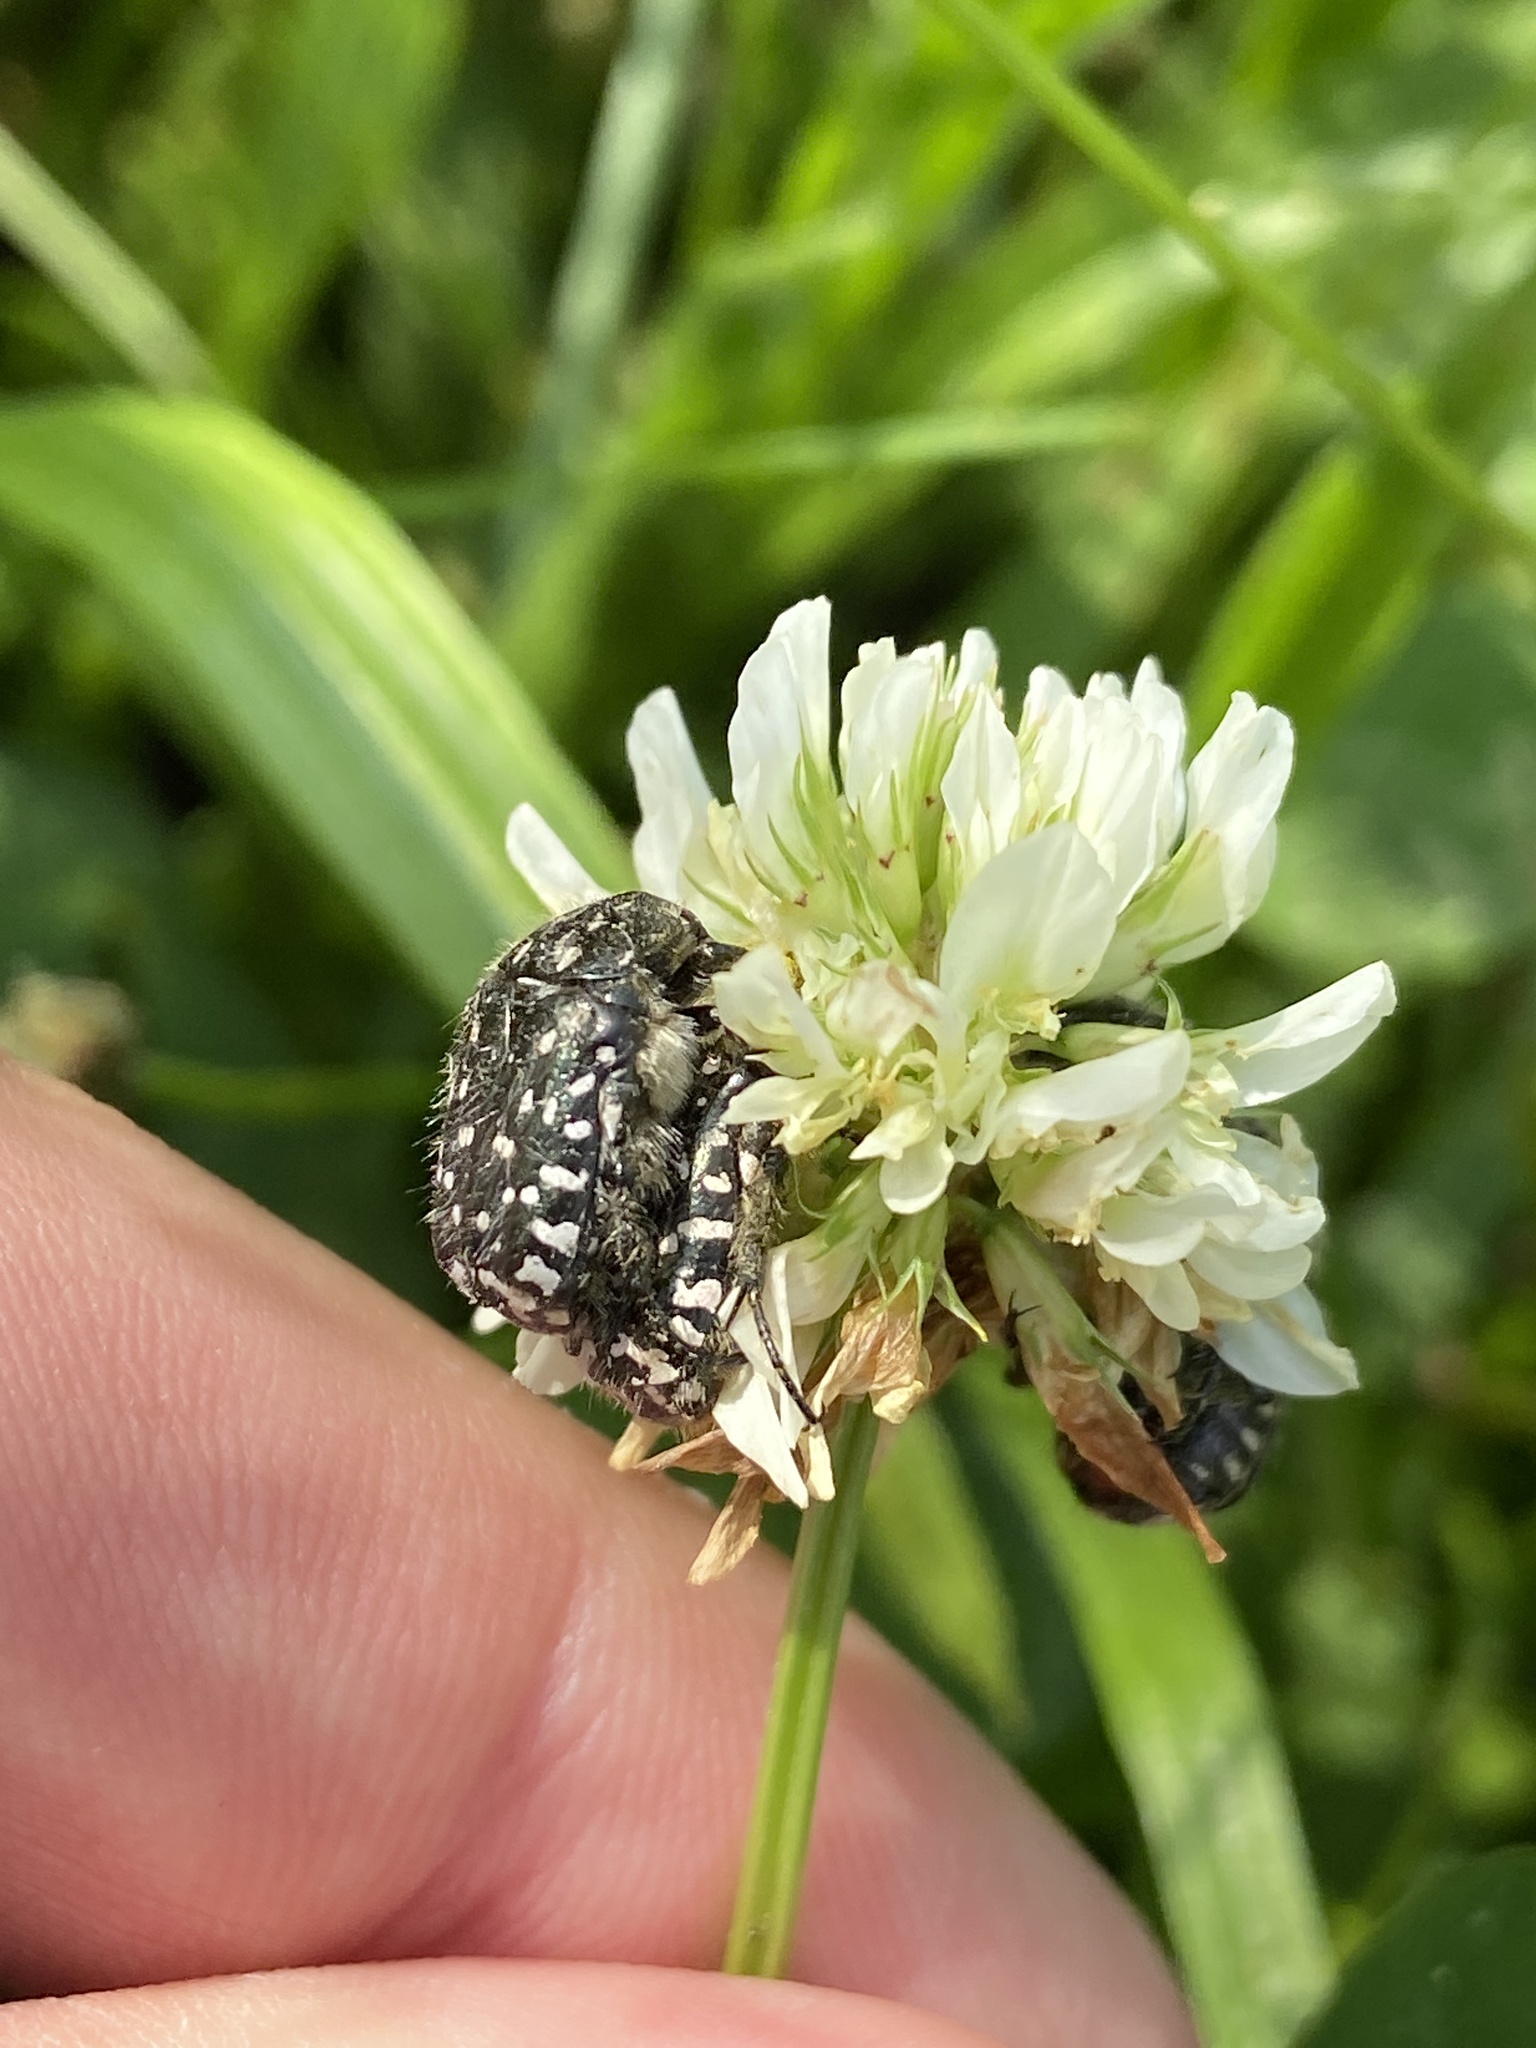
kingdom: Animalia
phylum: Arthropoda
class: Insecta
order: Coleoptera
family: Scarabaeidae
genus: Oxythyrea
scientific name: Oxythyrea funesta
